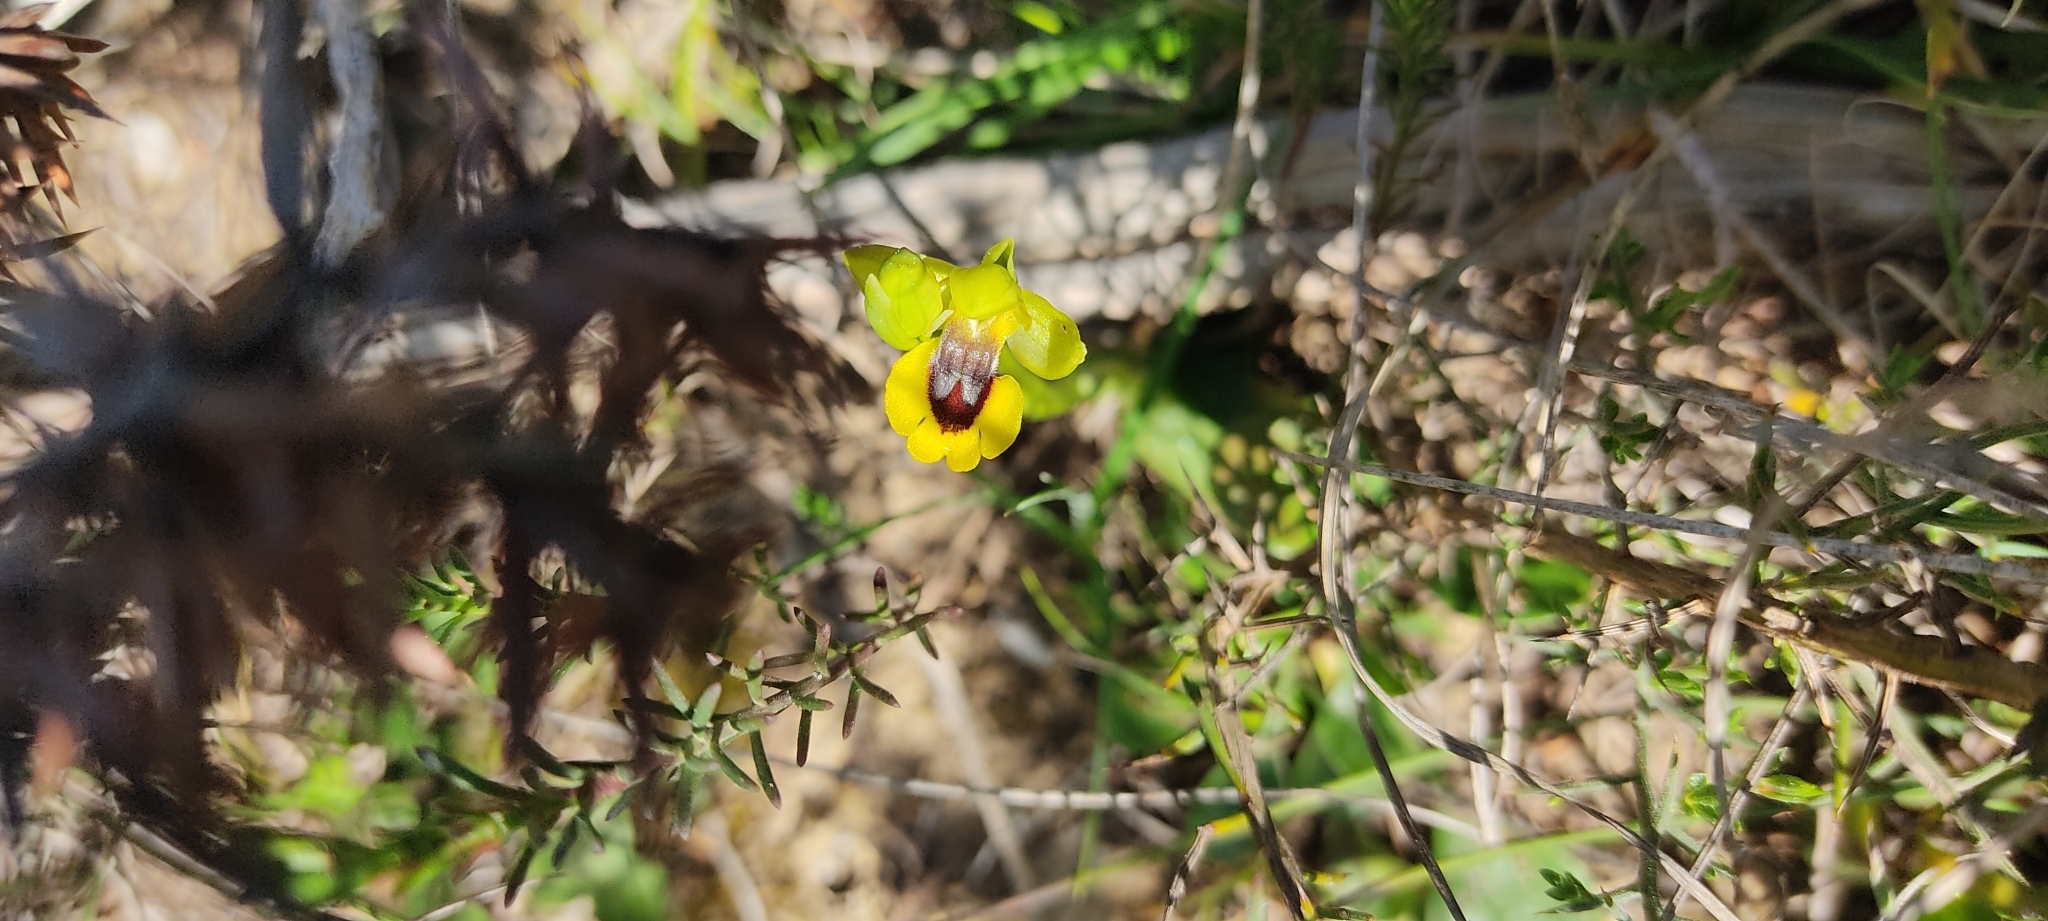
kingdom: Plantae
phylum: Tracheophyta
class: Liliopsida
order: Asparagales
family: Orchidaceae
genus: Ophrys
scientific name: Ophrys lutea
